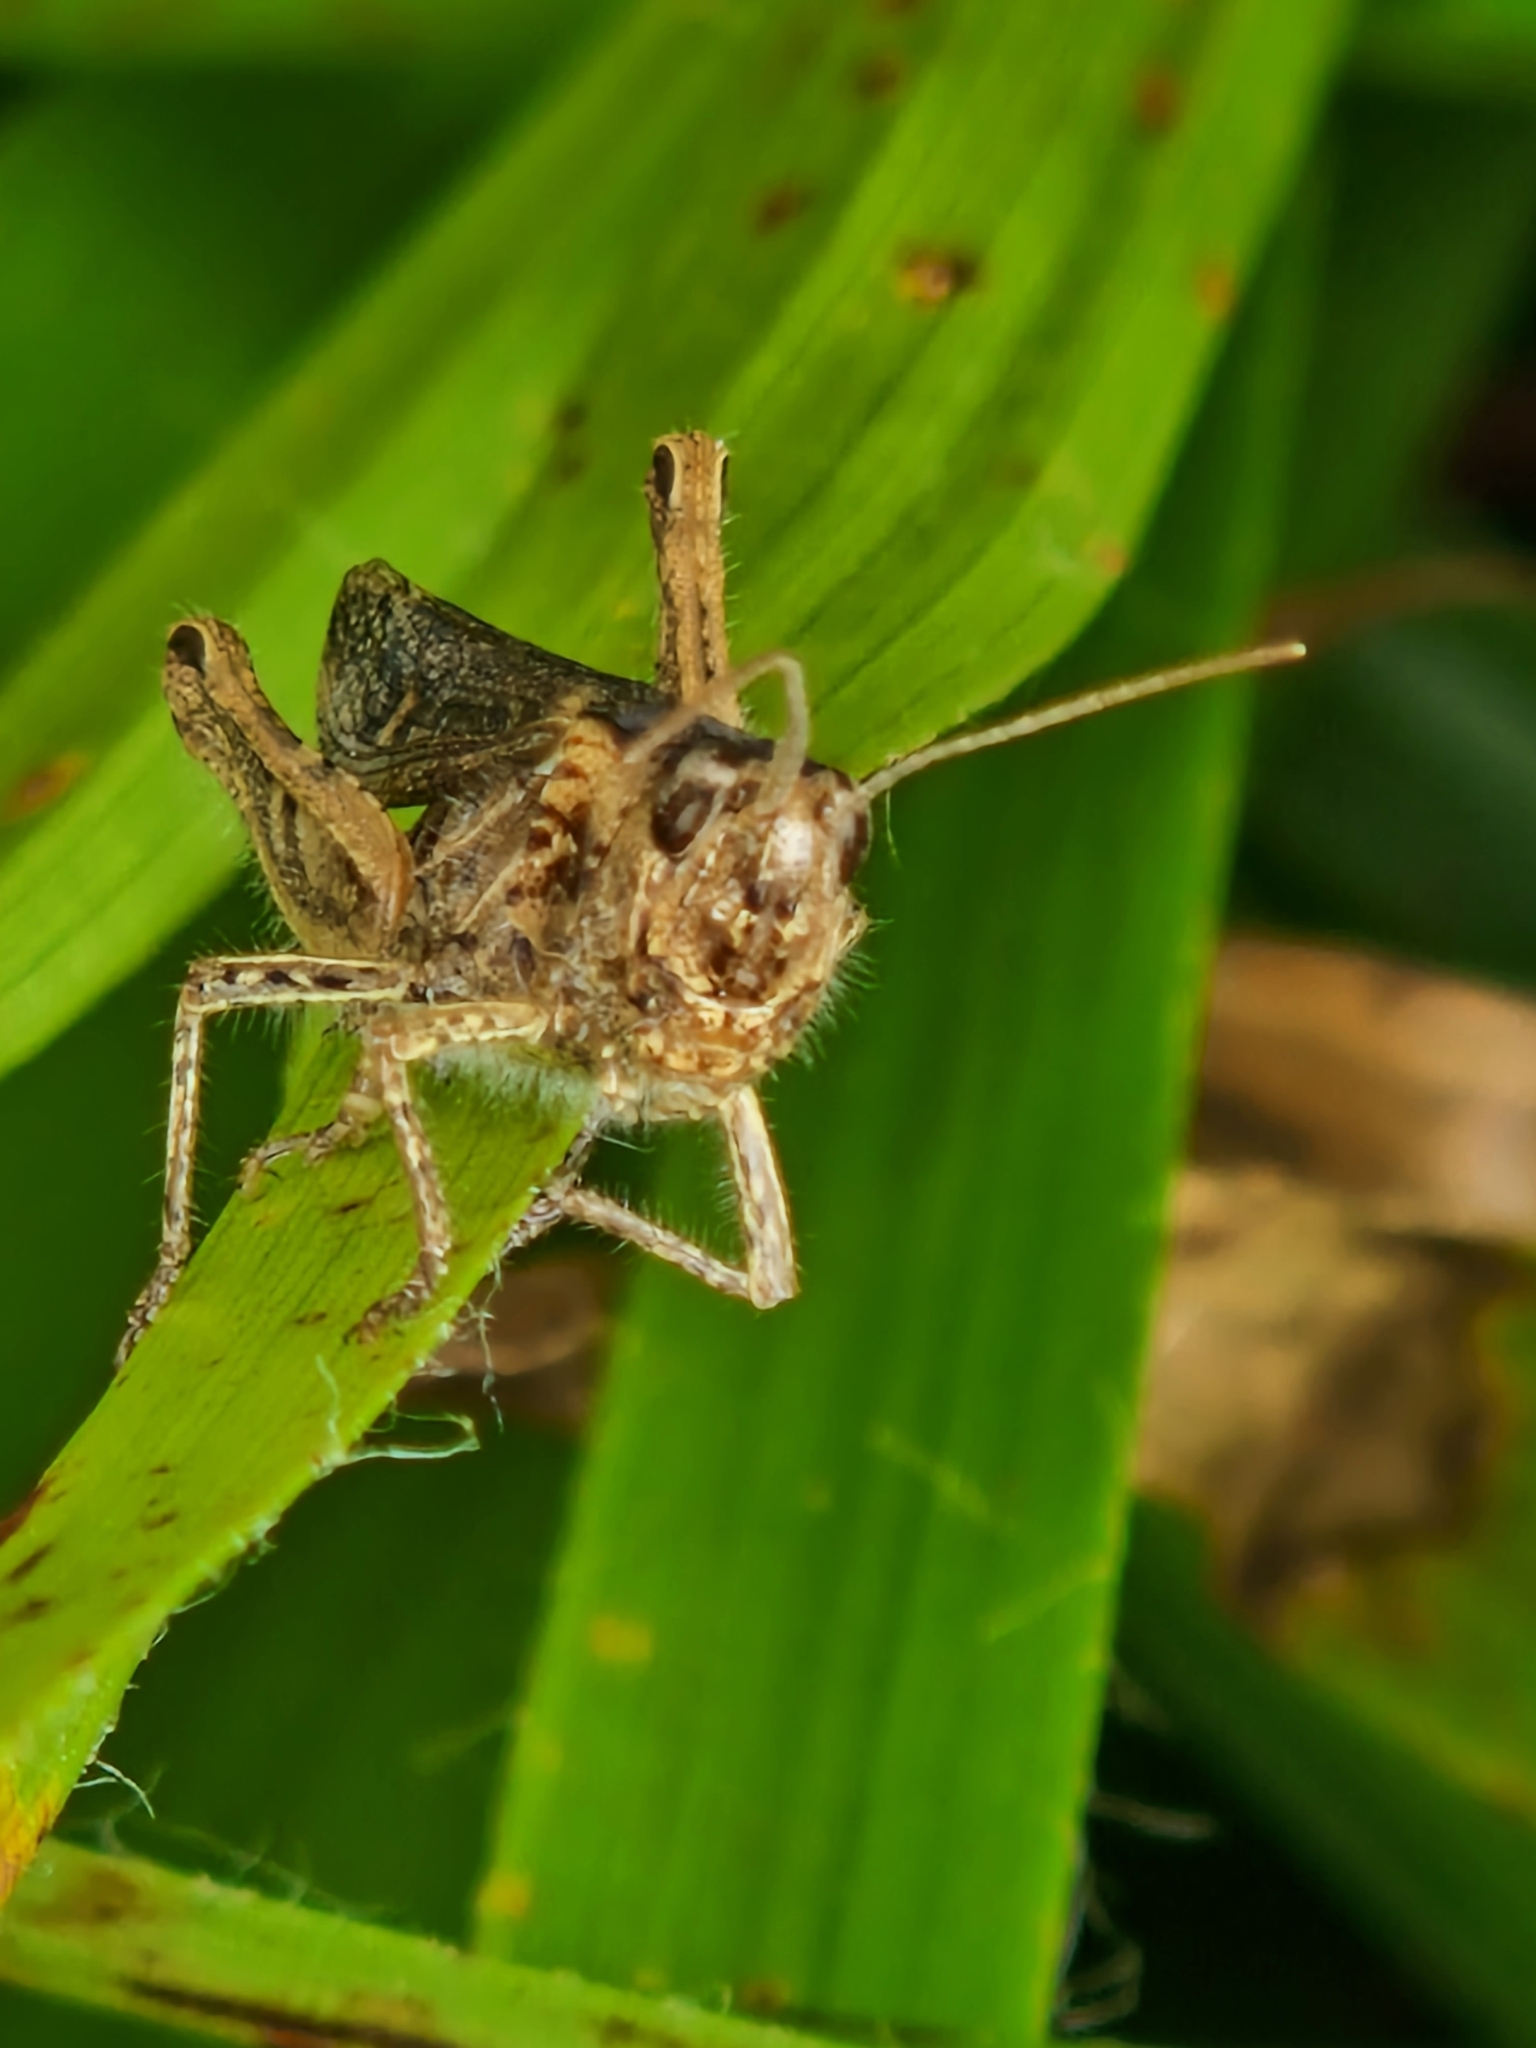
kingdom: Animalia
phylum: Arthropoda
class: Insecta
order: Orthoptera
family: Acrididae
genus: Chorthippus
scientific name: Chorthippus brunneus
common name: Field grasshopper
